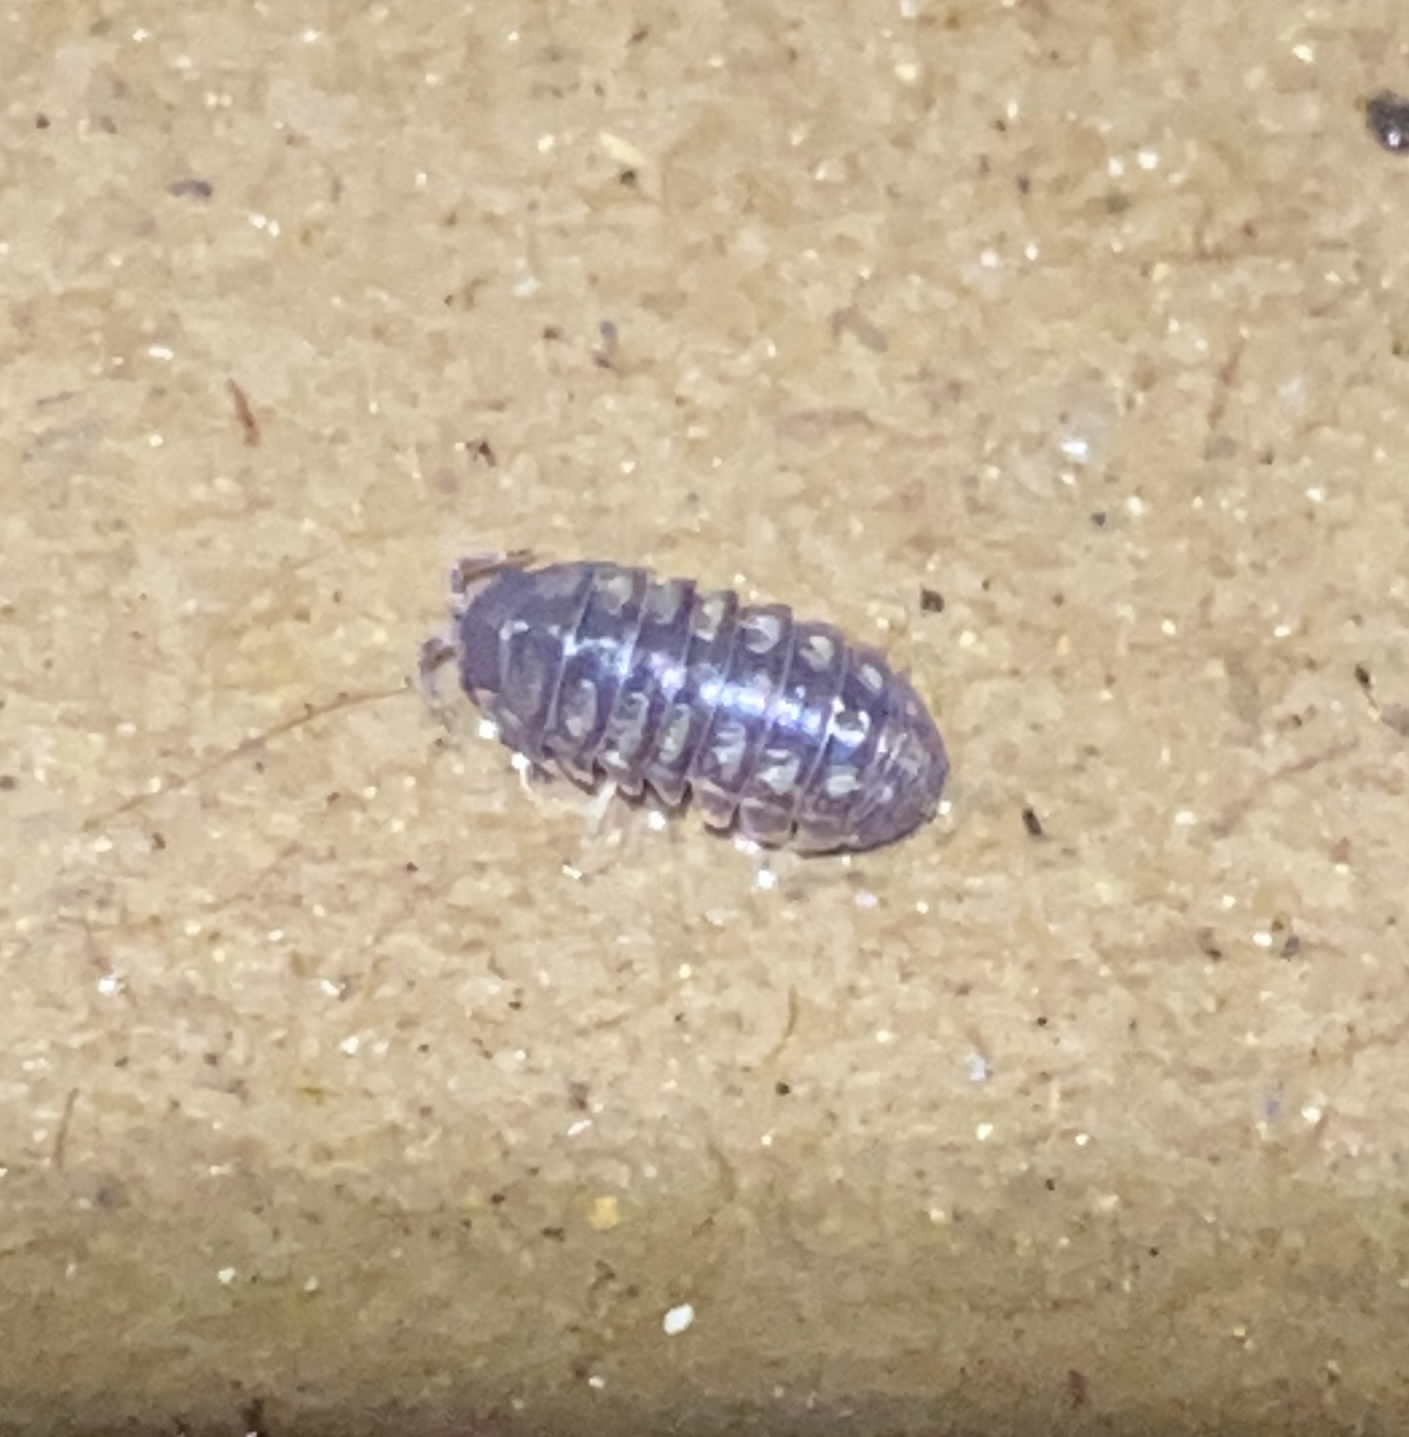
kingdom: Viruses
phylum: Nucleocytoviricota
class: Megaviricetes
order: Pimascovirales
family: Iridoviridae
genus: Iridovirus
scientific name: Iridovirus Invertebrate iridescent virus 31
